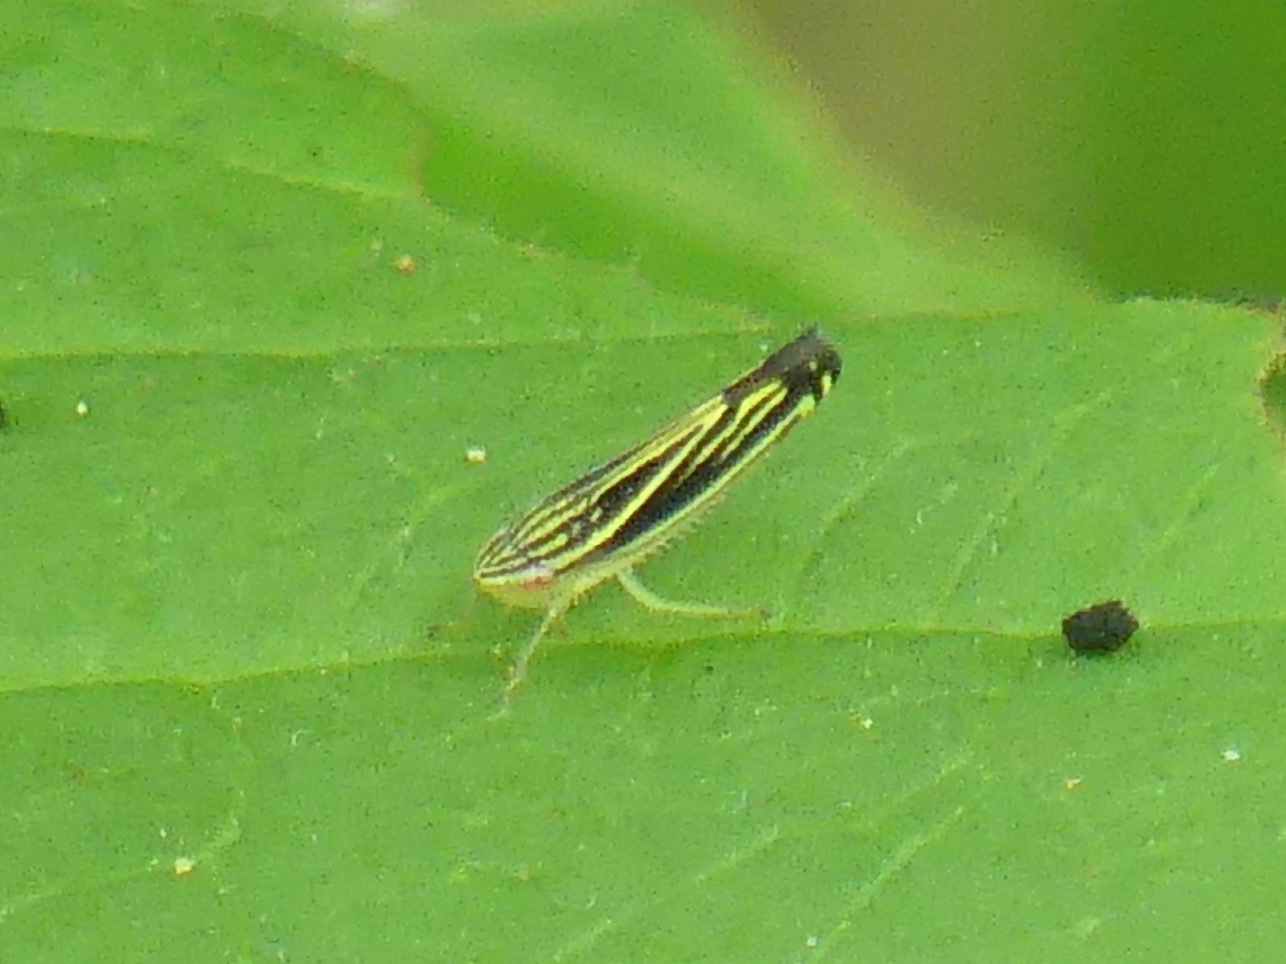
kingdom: Animalia
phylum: Arthropoda
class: Insecta
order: Hemiptera
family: Cicadellidae
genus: Sibovia
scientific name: Sibovia occatoria
